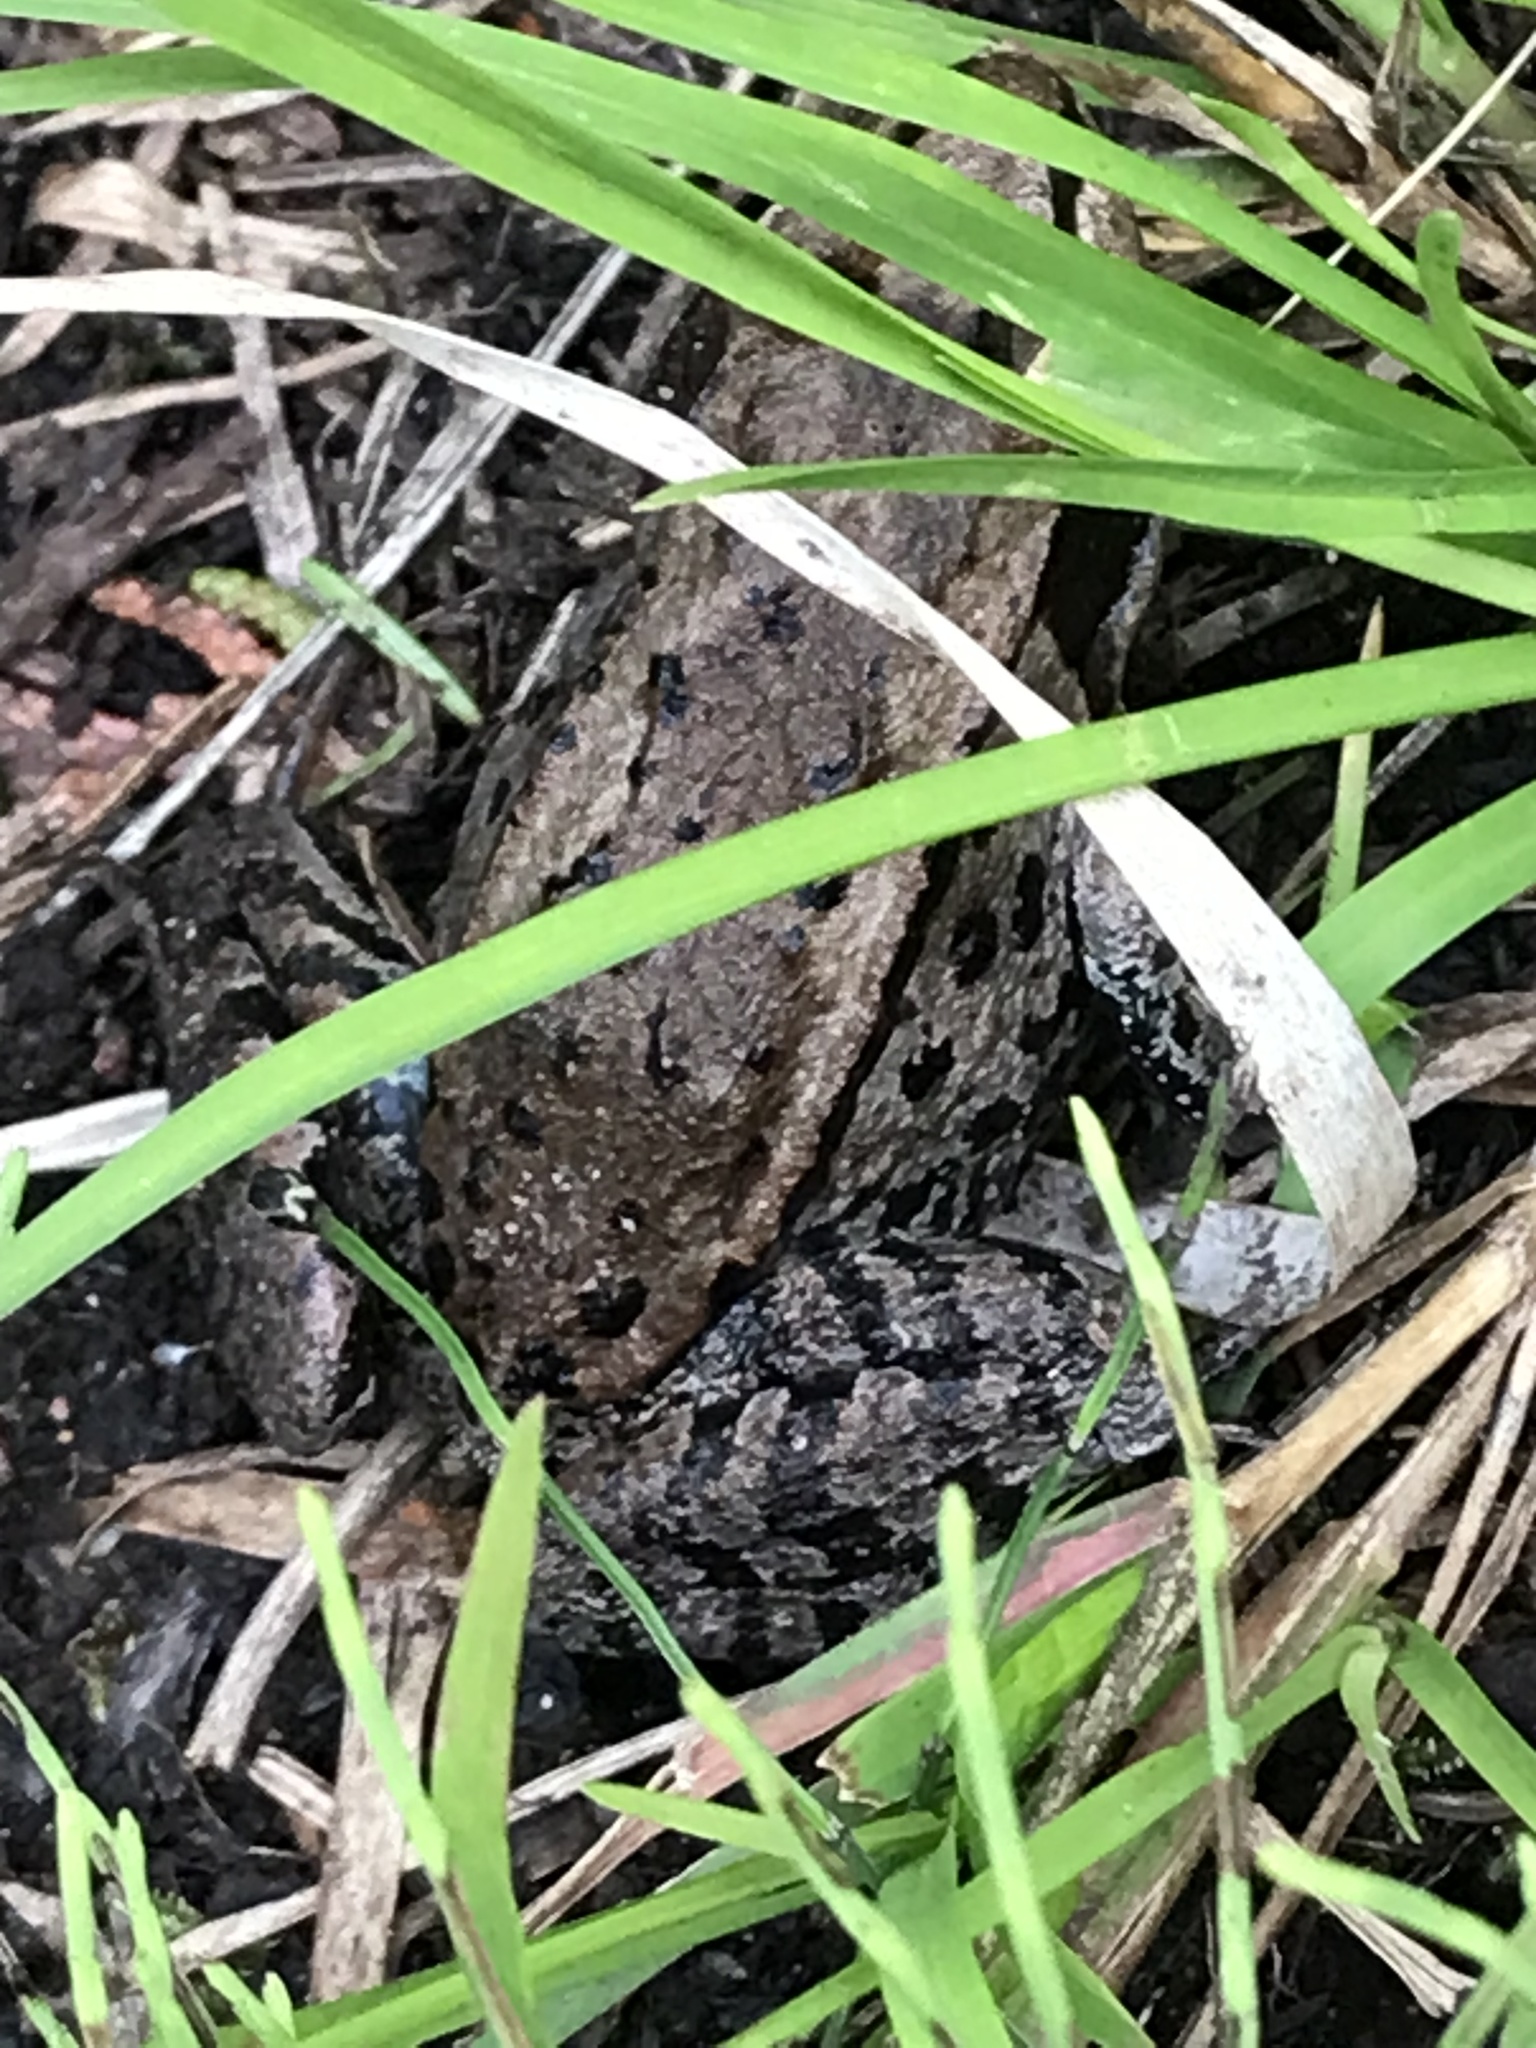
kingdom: Animalia
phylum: Chordata
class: Amphibia
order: Anura
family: Ranidae
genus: Lithobates
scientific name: Lithobates sylvaticus
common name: Wood frog
